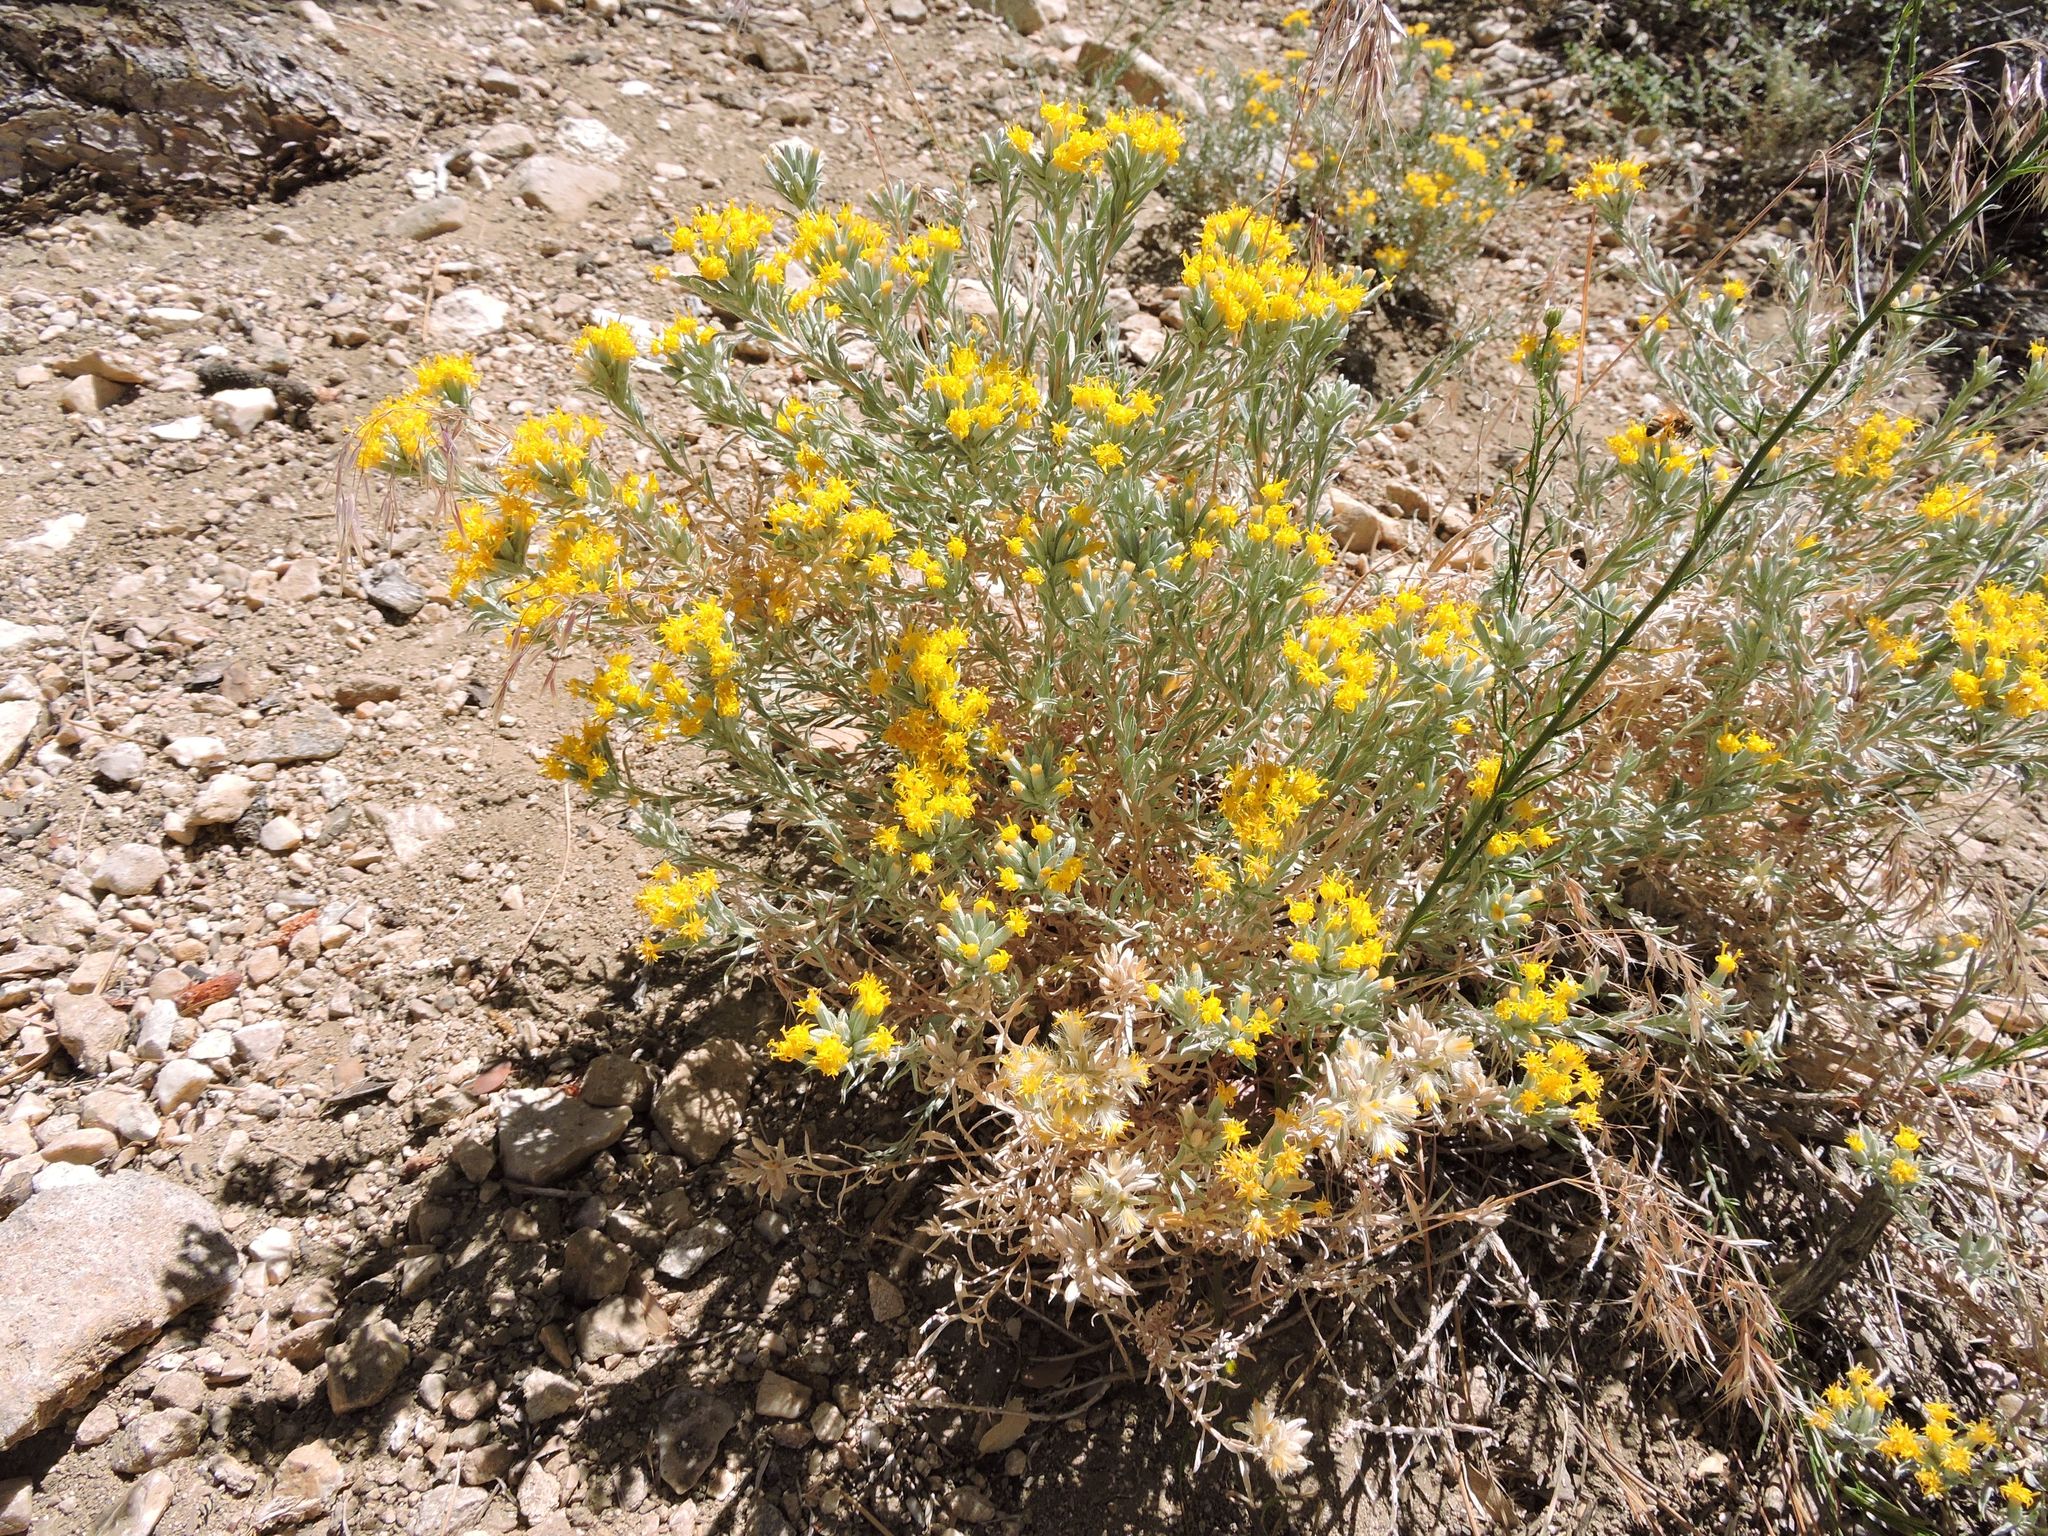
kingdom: Plantae
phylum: Tracheophyta
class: Magnoliopsida
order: Asterales
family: Asteraceae
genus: Tetradymia
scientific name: Tetradymia canescens
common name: Spineless horsebrush
